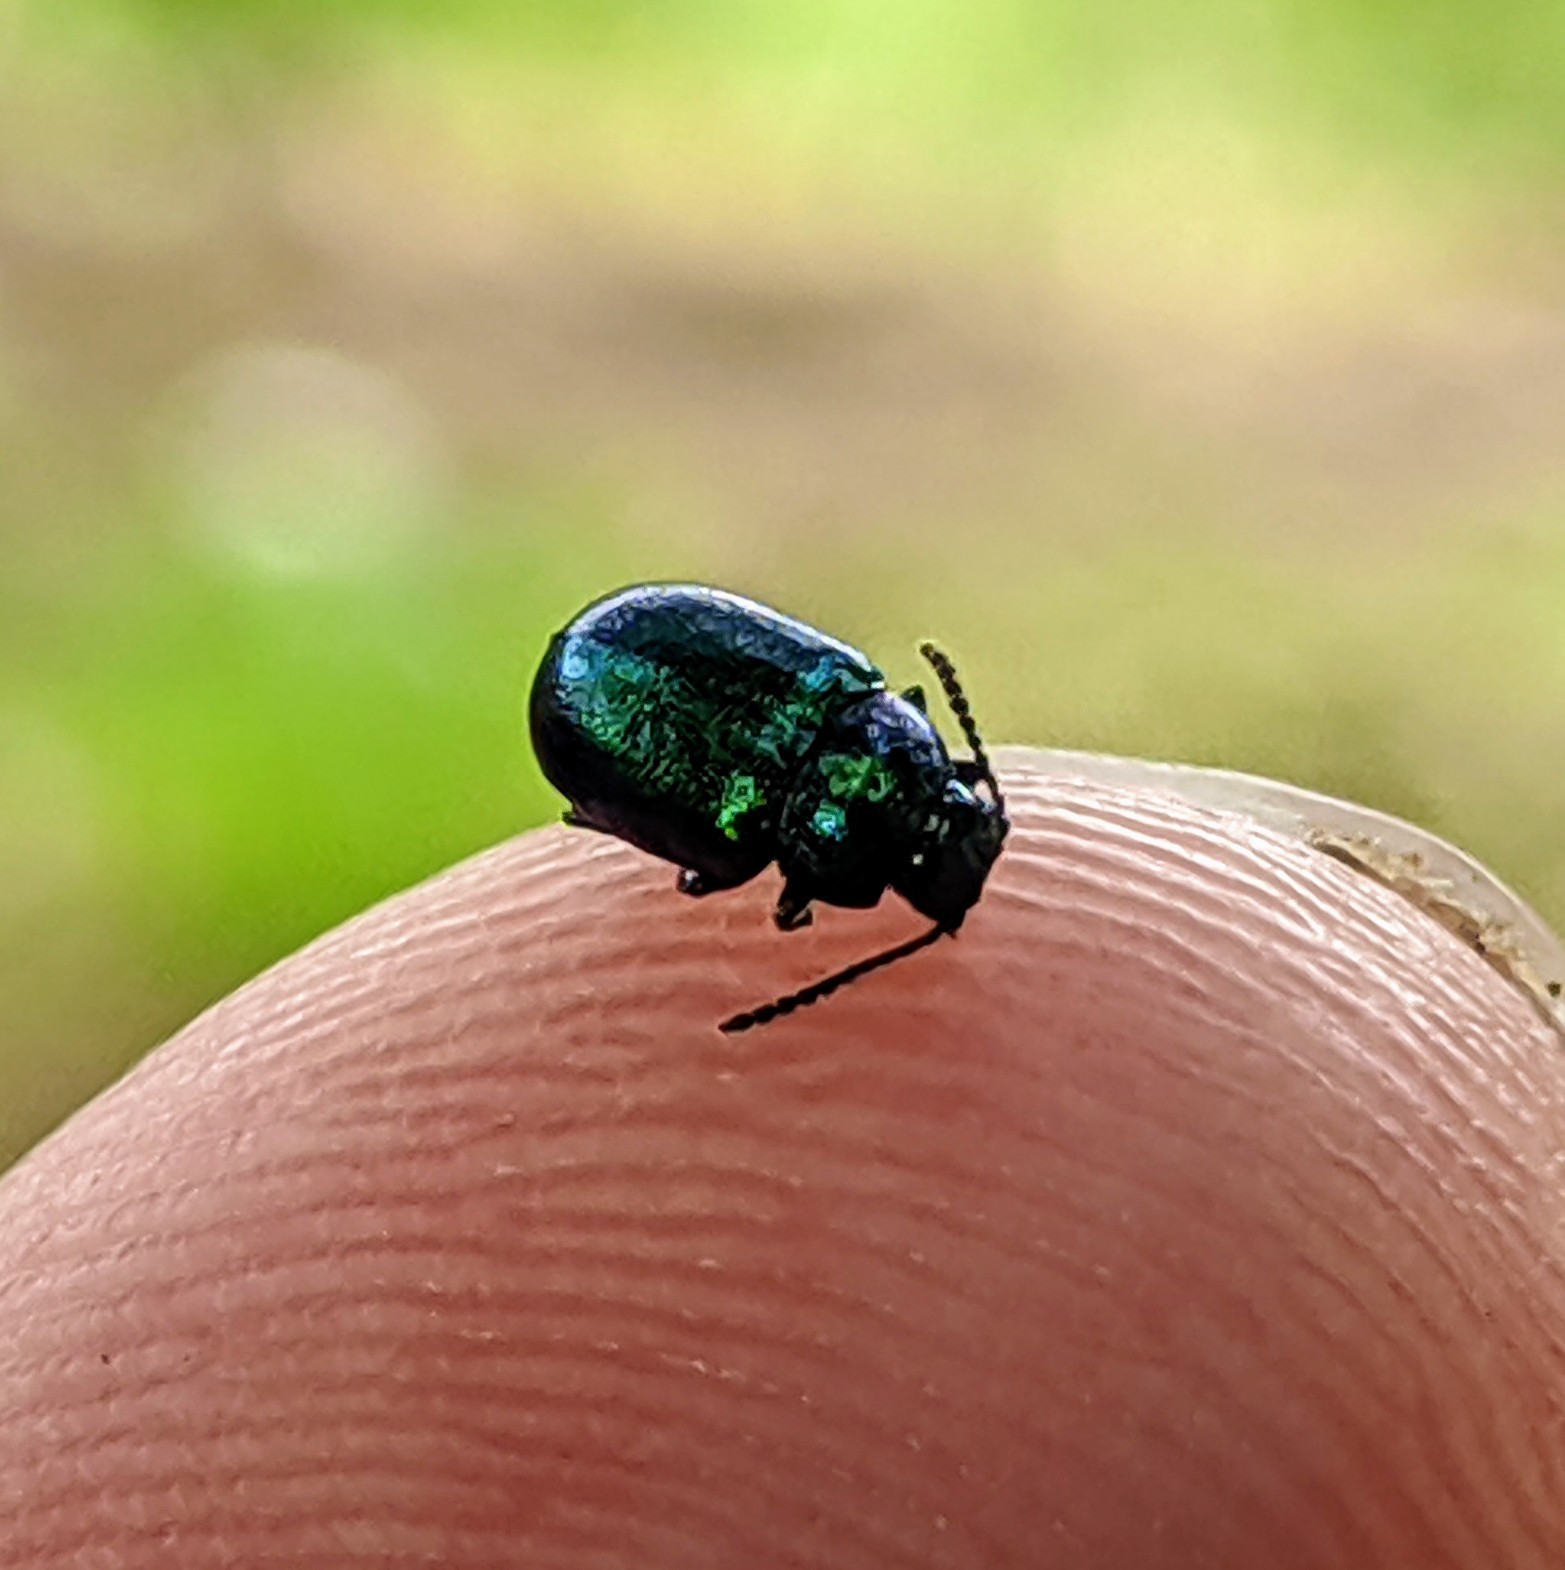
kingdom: Animalia
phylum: Arthropoda
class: Insecta
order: Coleoptera
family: Chrysomelidae
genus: Gastrophysa
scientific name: Gastrophysa viridula
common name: Green dock beetle
